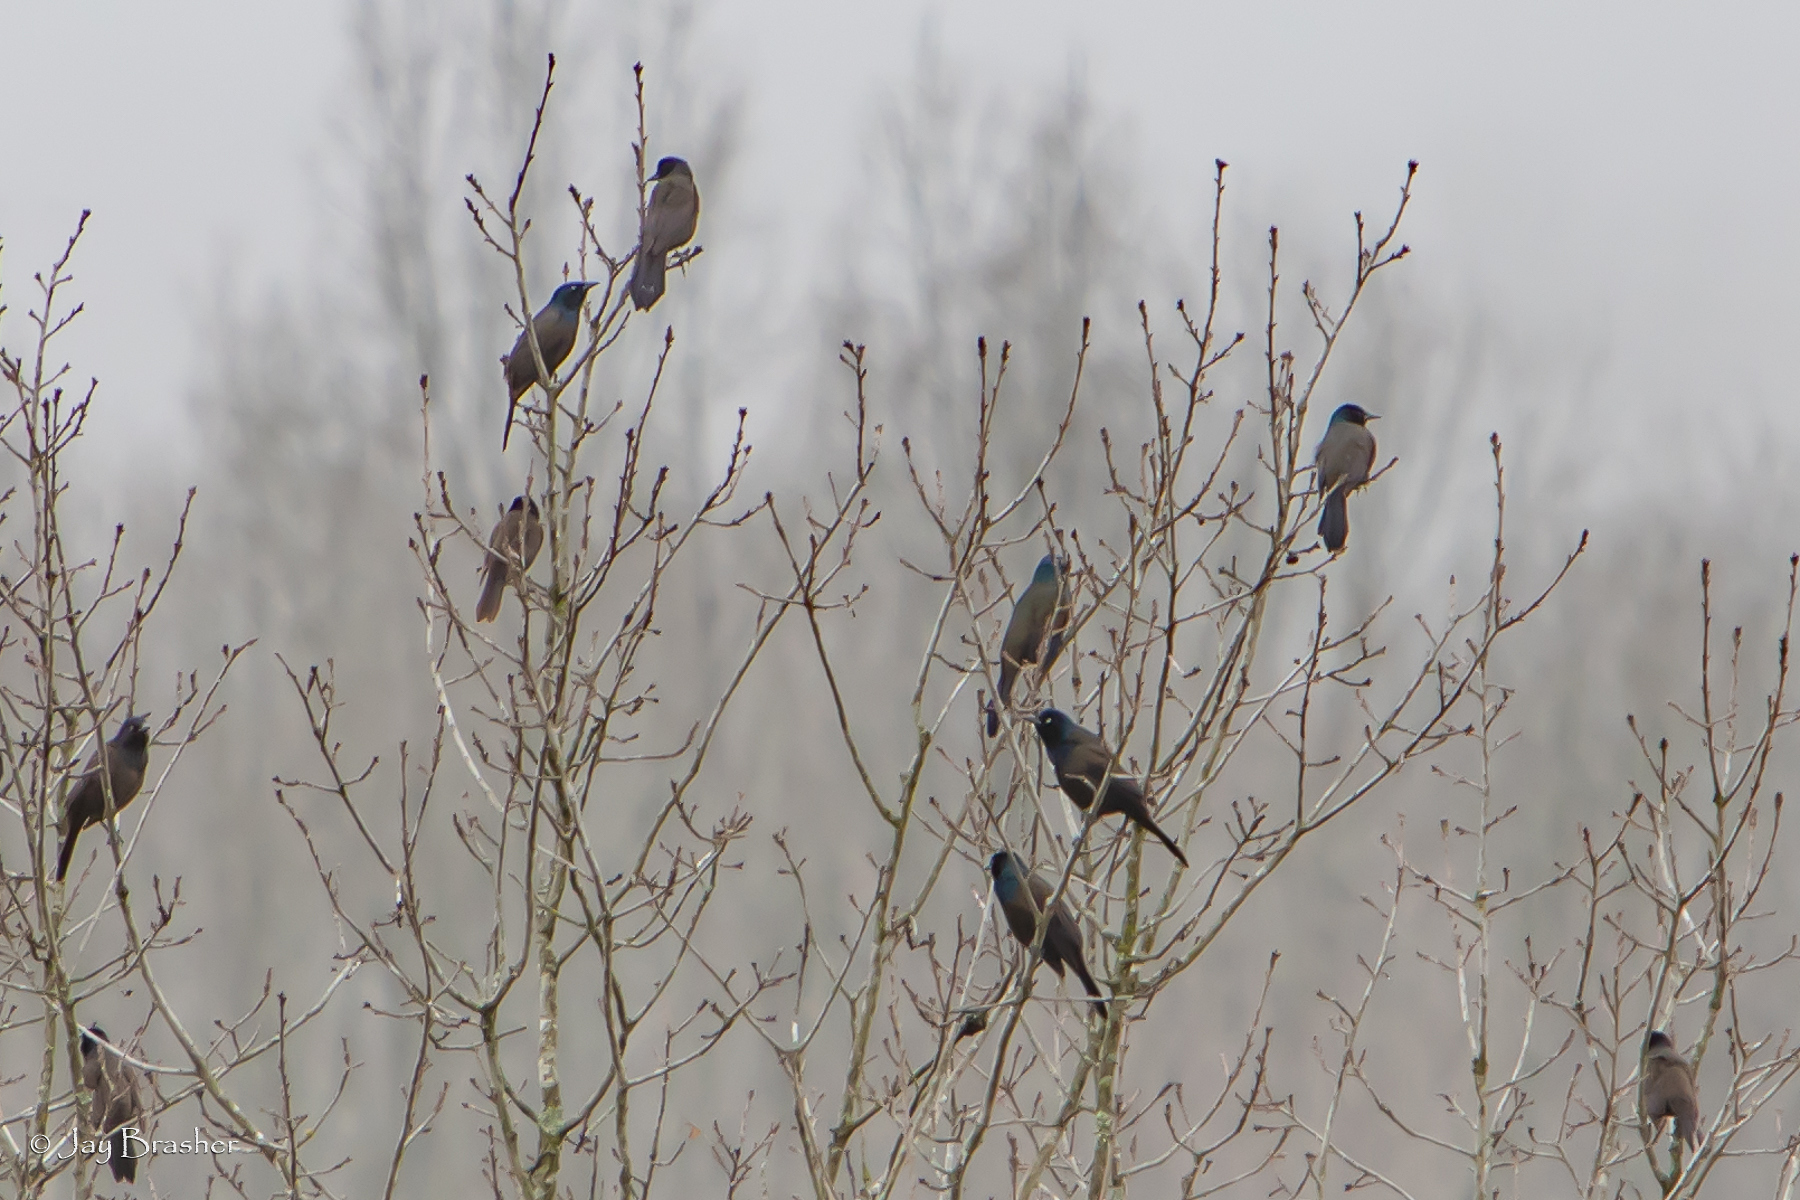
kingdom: Animalia
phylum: Chordata
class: Aves
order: Passeriformes
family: Icteridae
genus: Quiscalus
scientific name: Quiscalus quiscula
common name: Common grackle
